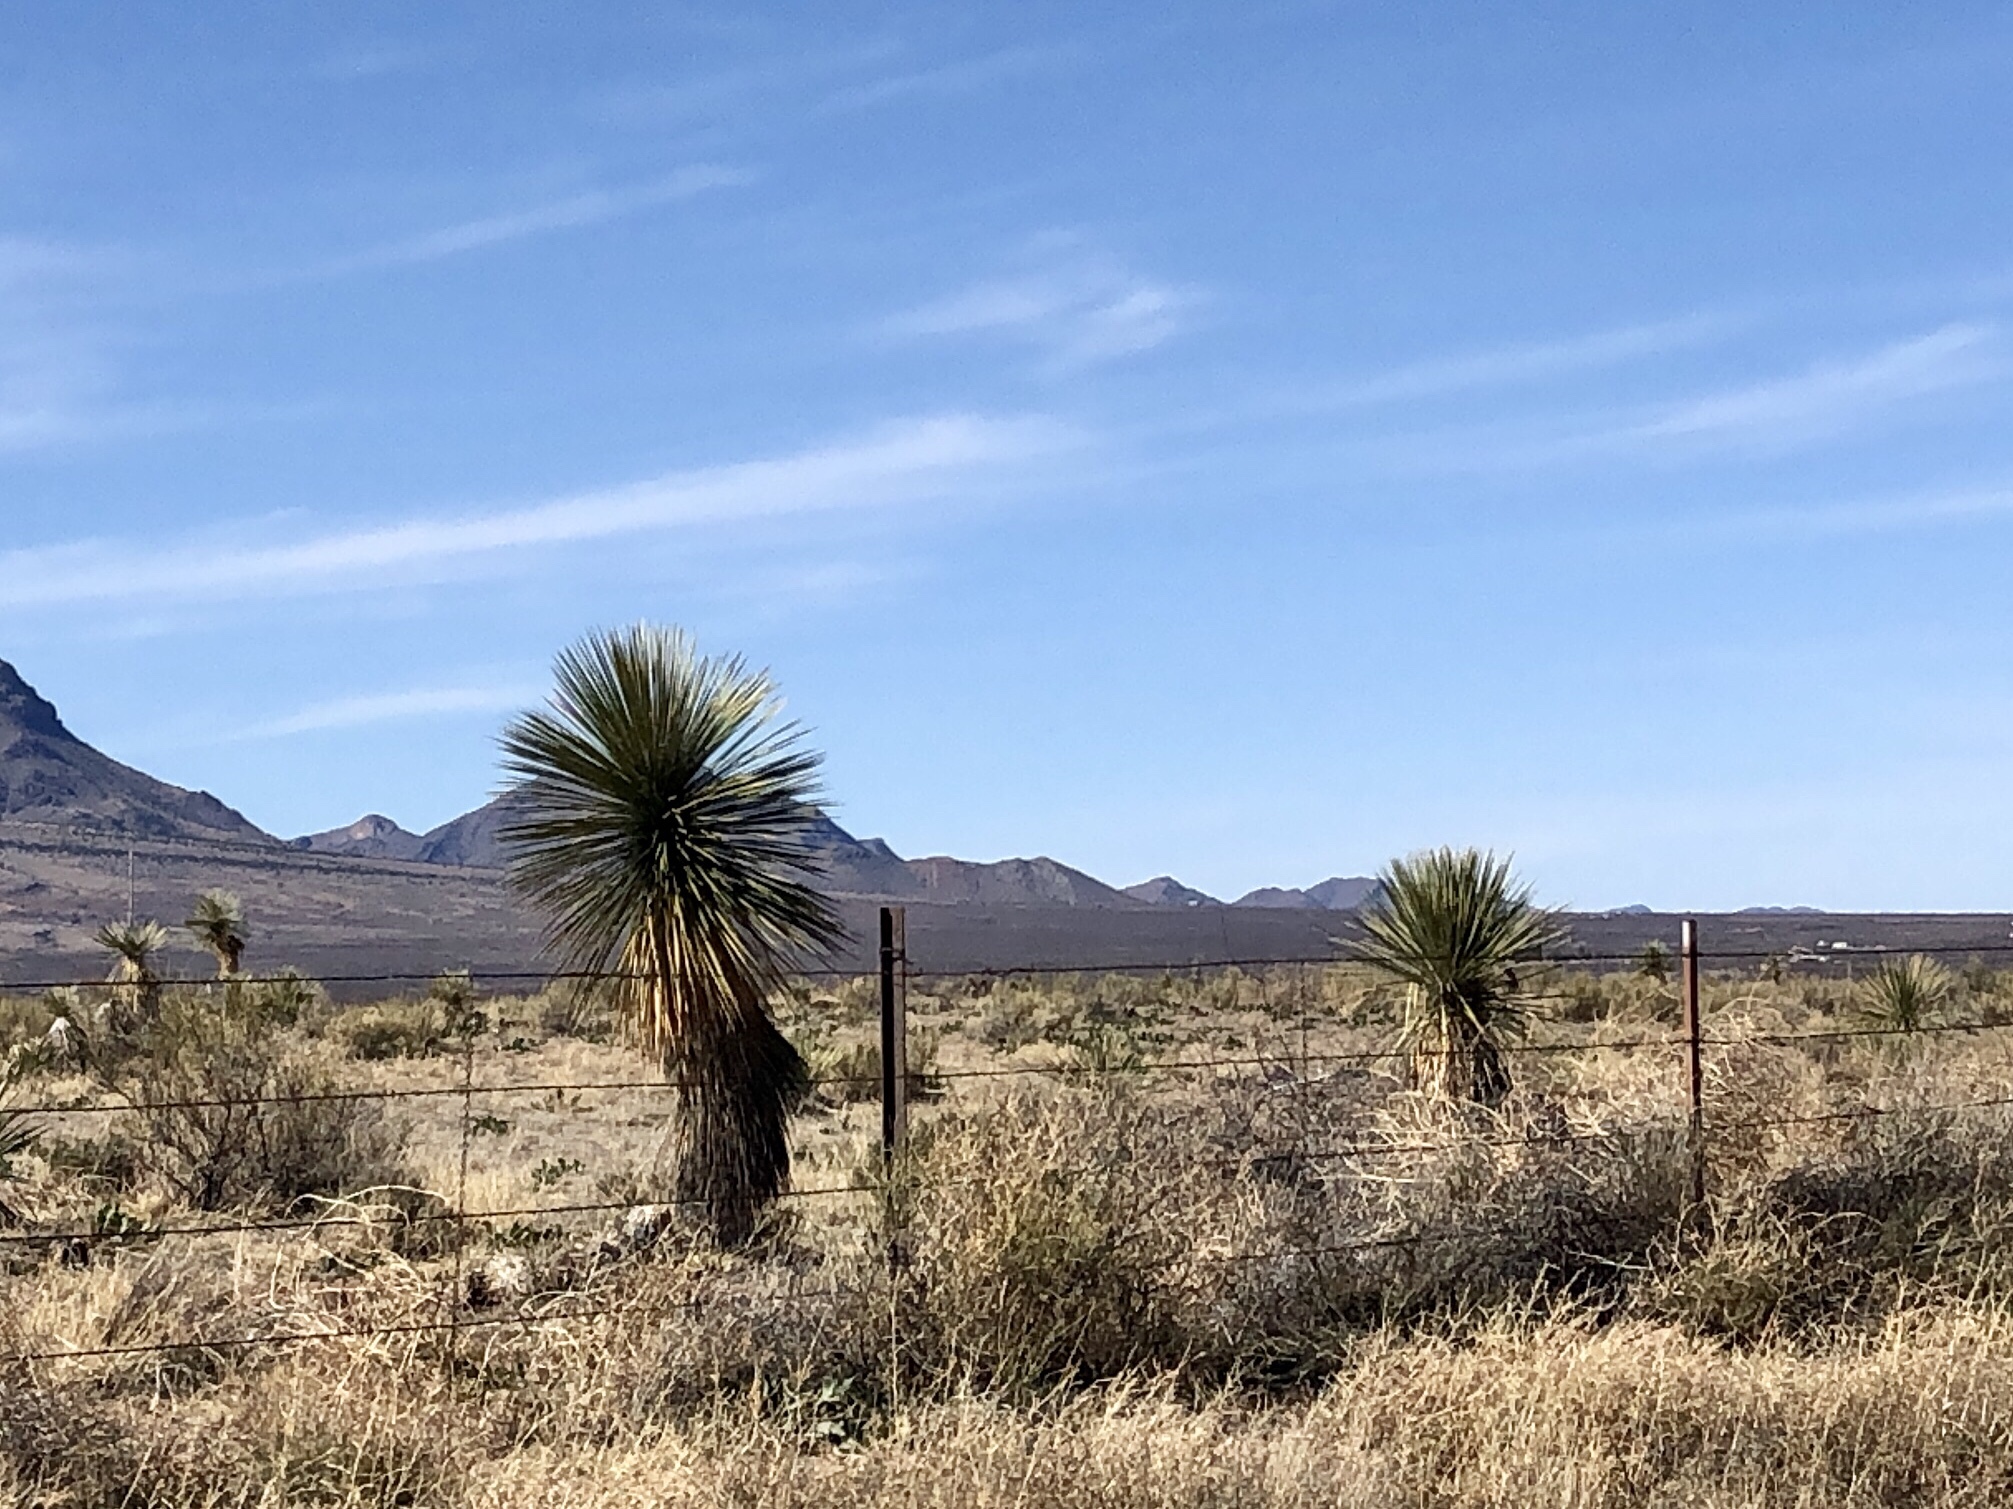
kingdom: Plantae
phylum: Tracheophyta
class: Liliopsida
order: Asparagales
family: Asparagaceae
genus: Yucca
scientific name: Yucca elata
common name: Palmella
